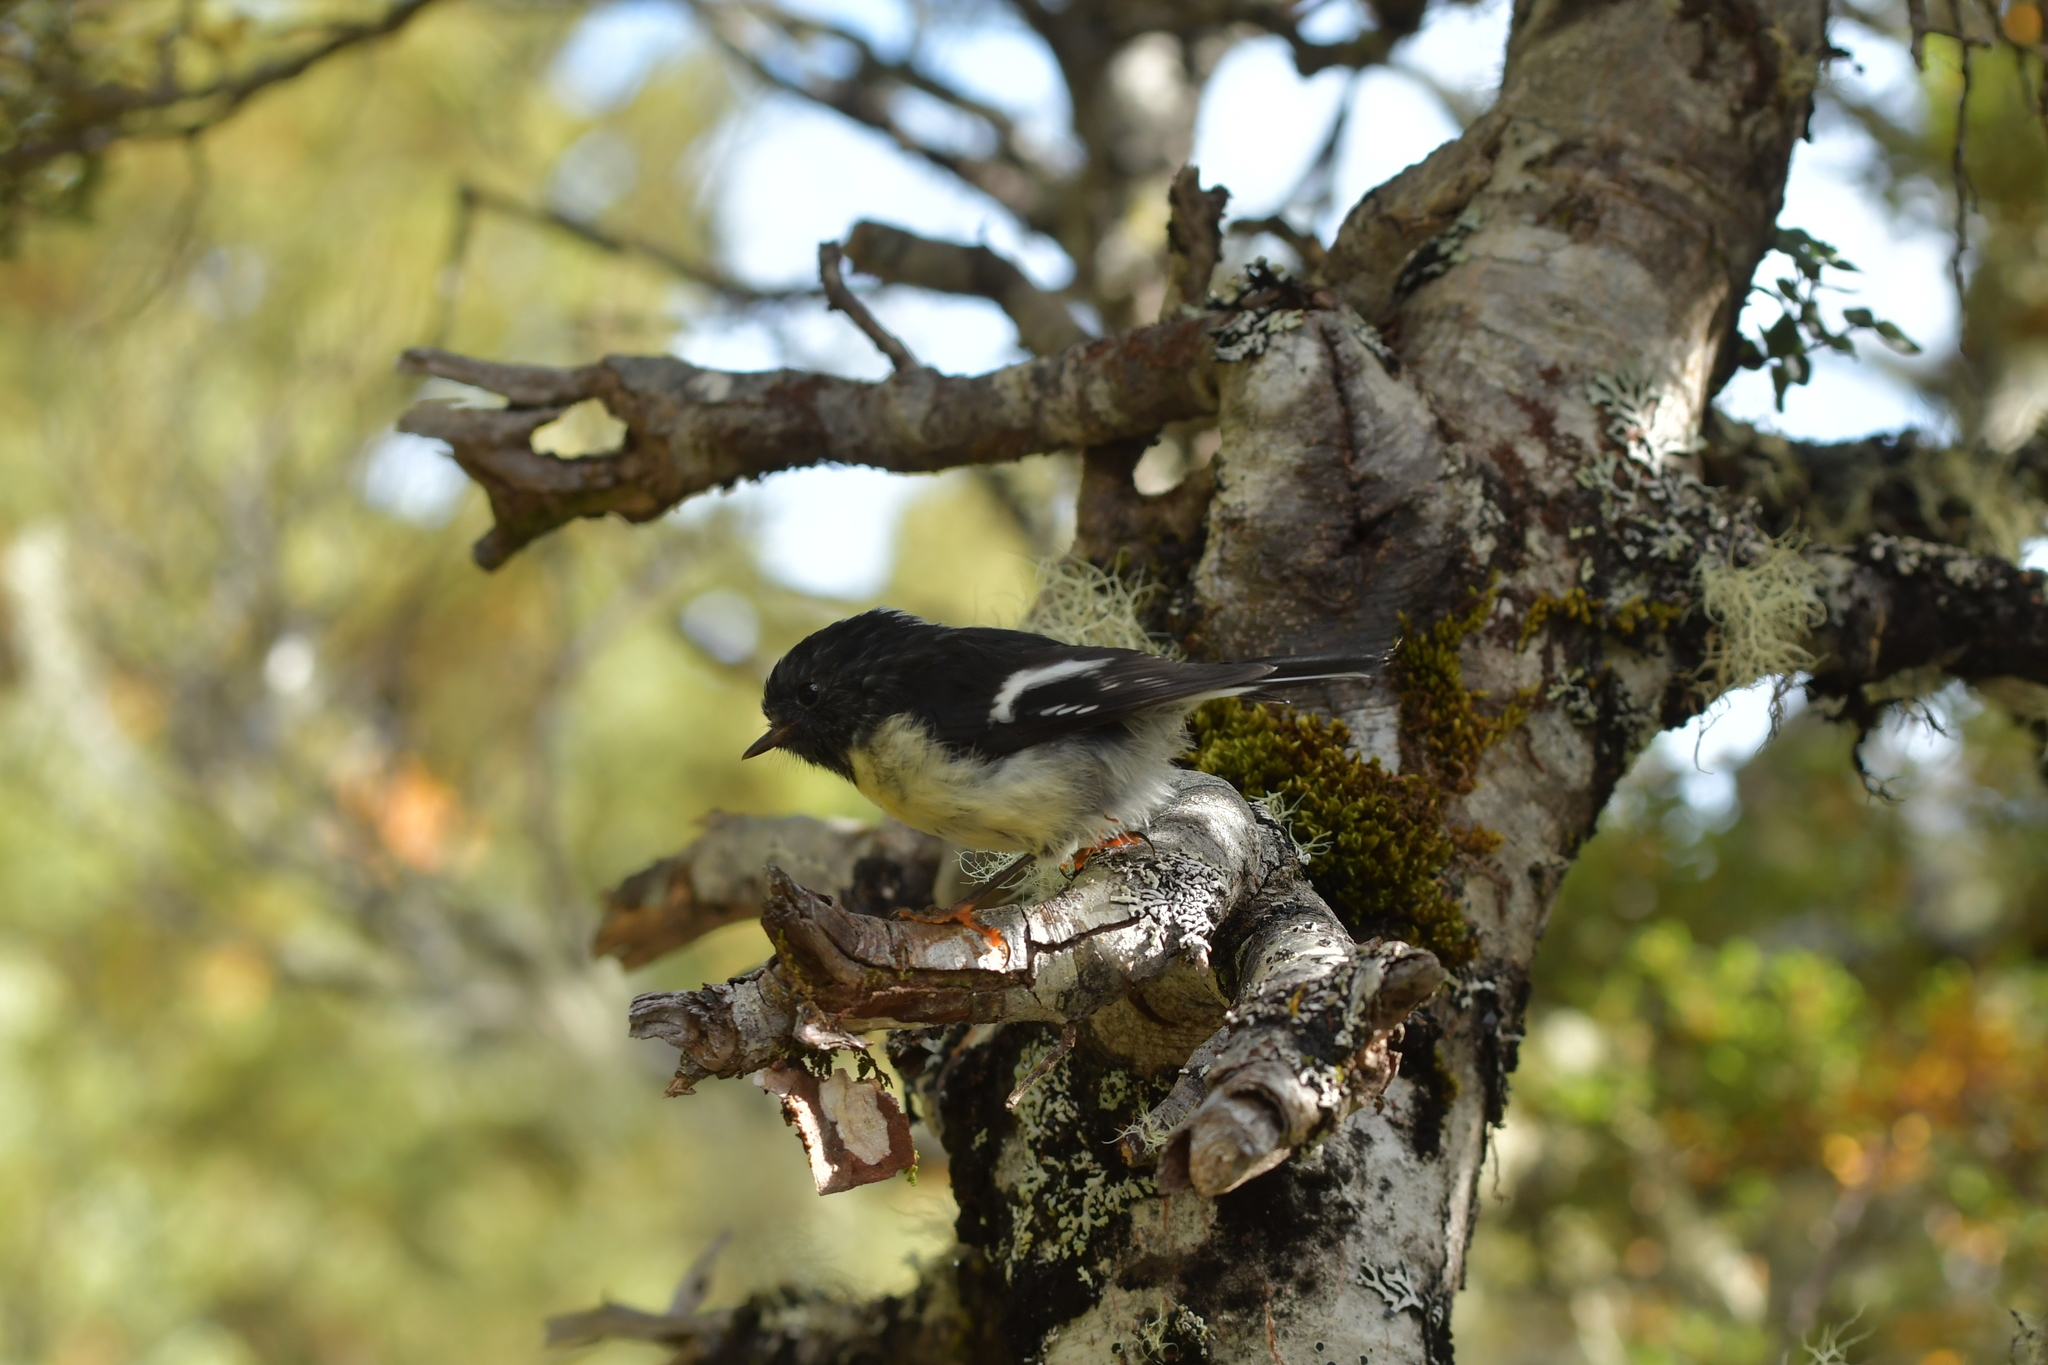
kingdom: Animalia
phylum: Chordata
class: Aves
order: Passeriformes
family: Petroicidae
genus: Petroica
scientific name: Petroica macrocephala
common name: Tomtit
